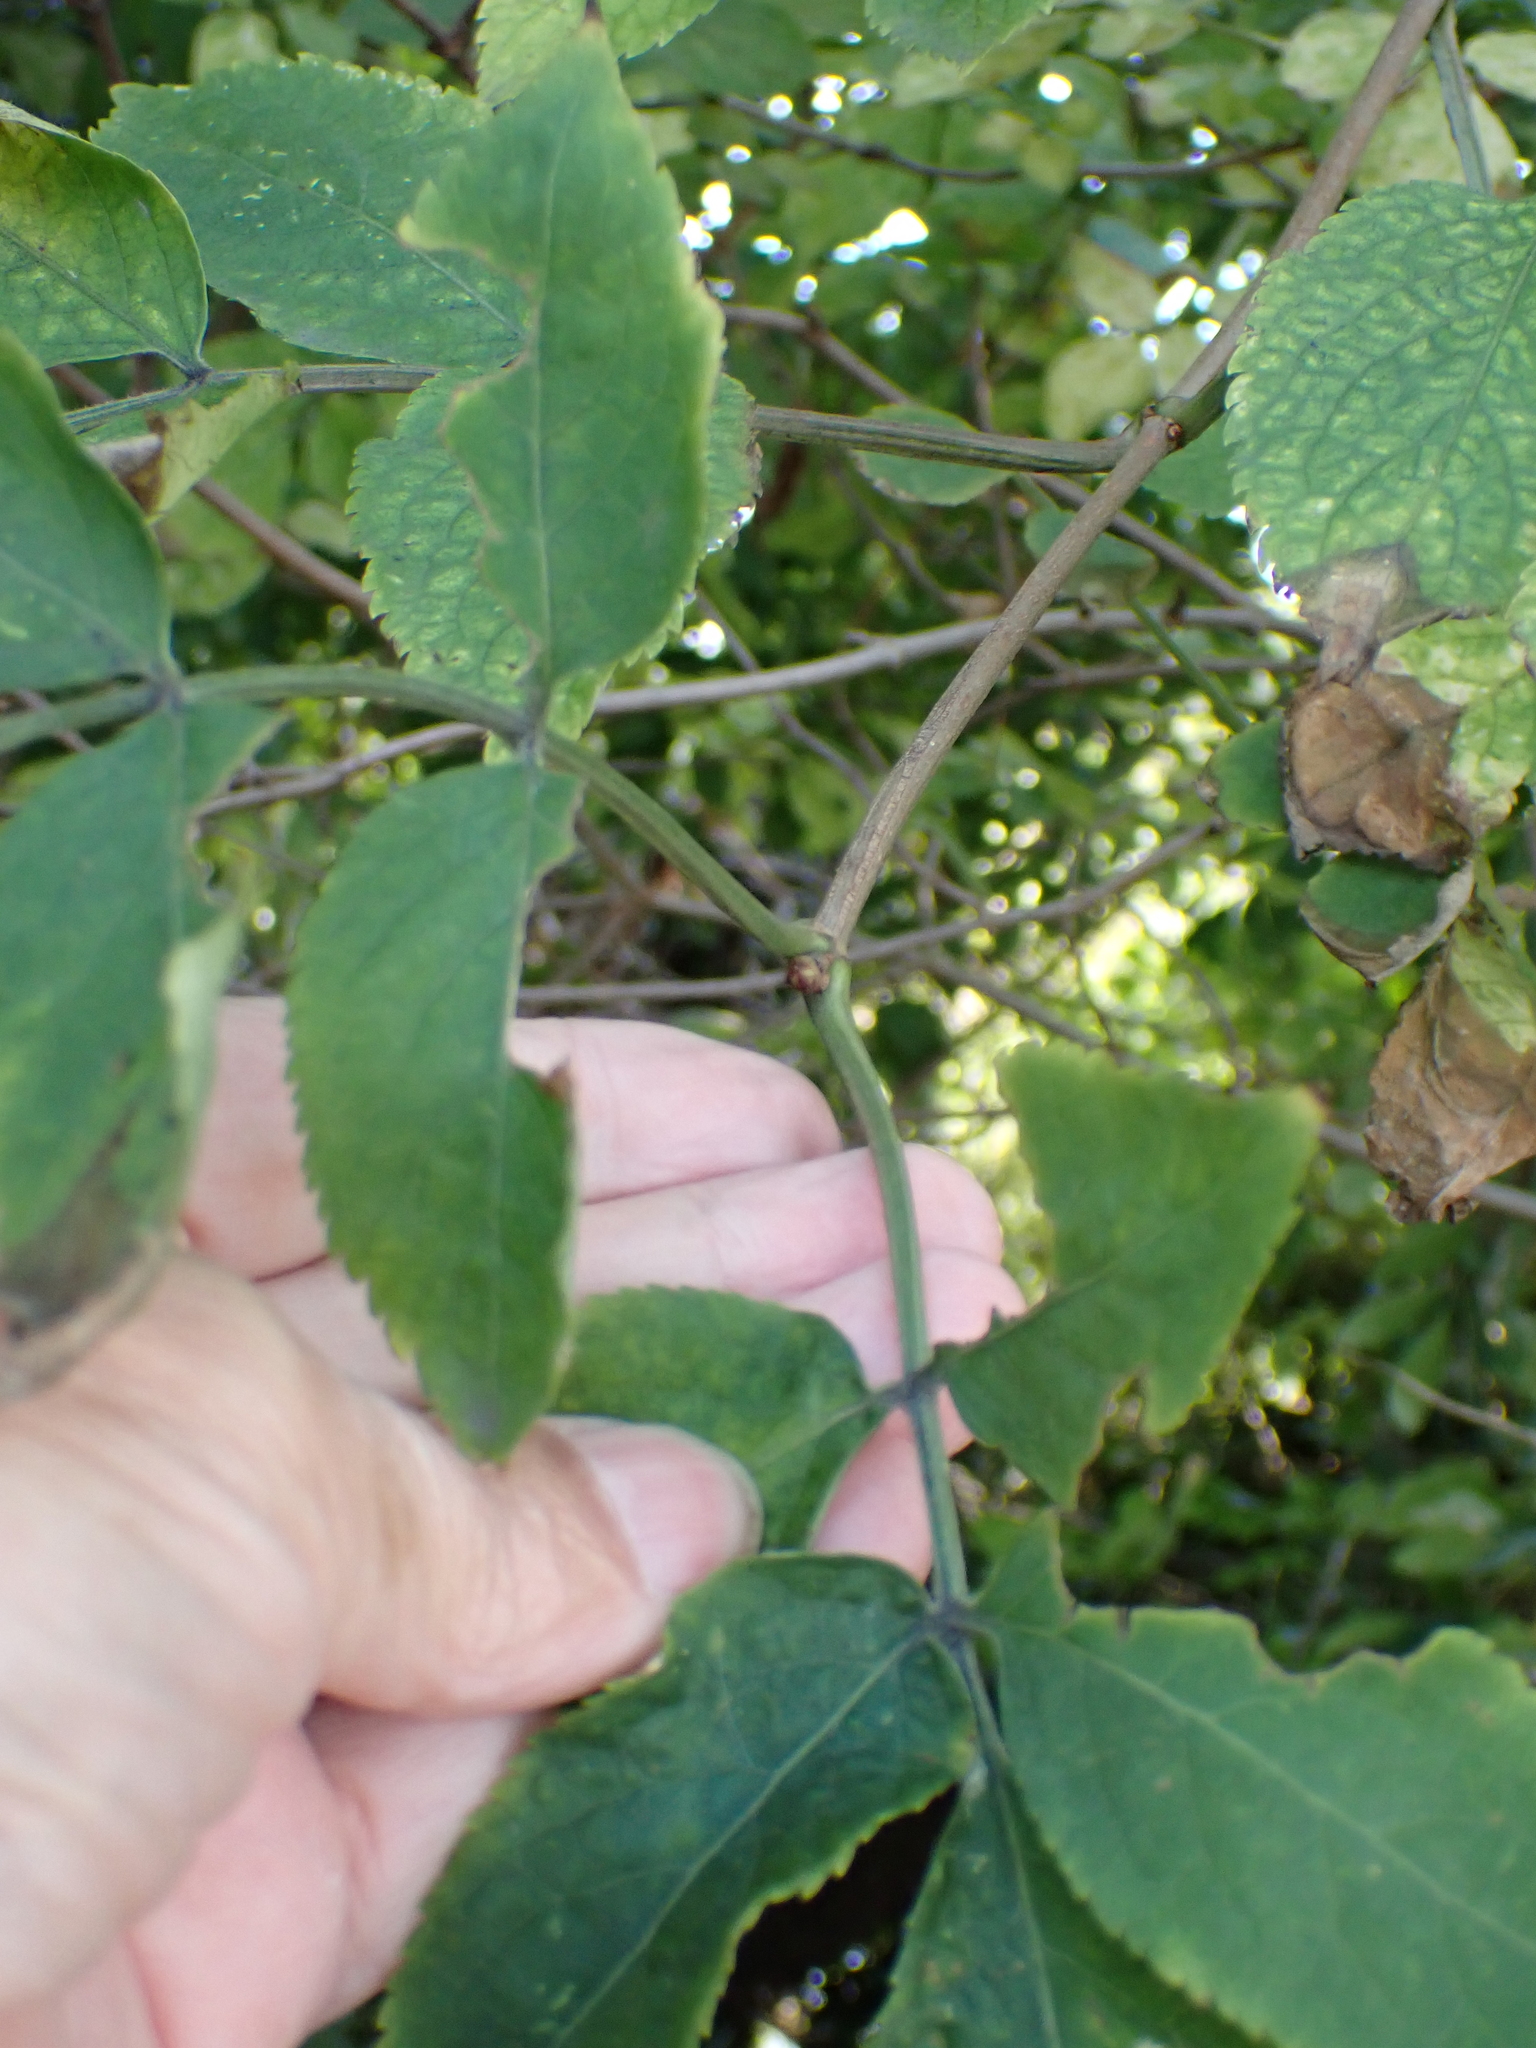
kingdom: Plantae
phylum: Tracheophyta
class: Magnoliopsida
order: Dipsacales
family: Viburnaceae
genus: Sambucus
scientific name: Sambucus nigra
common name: Elder
